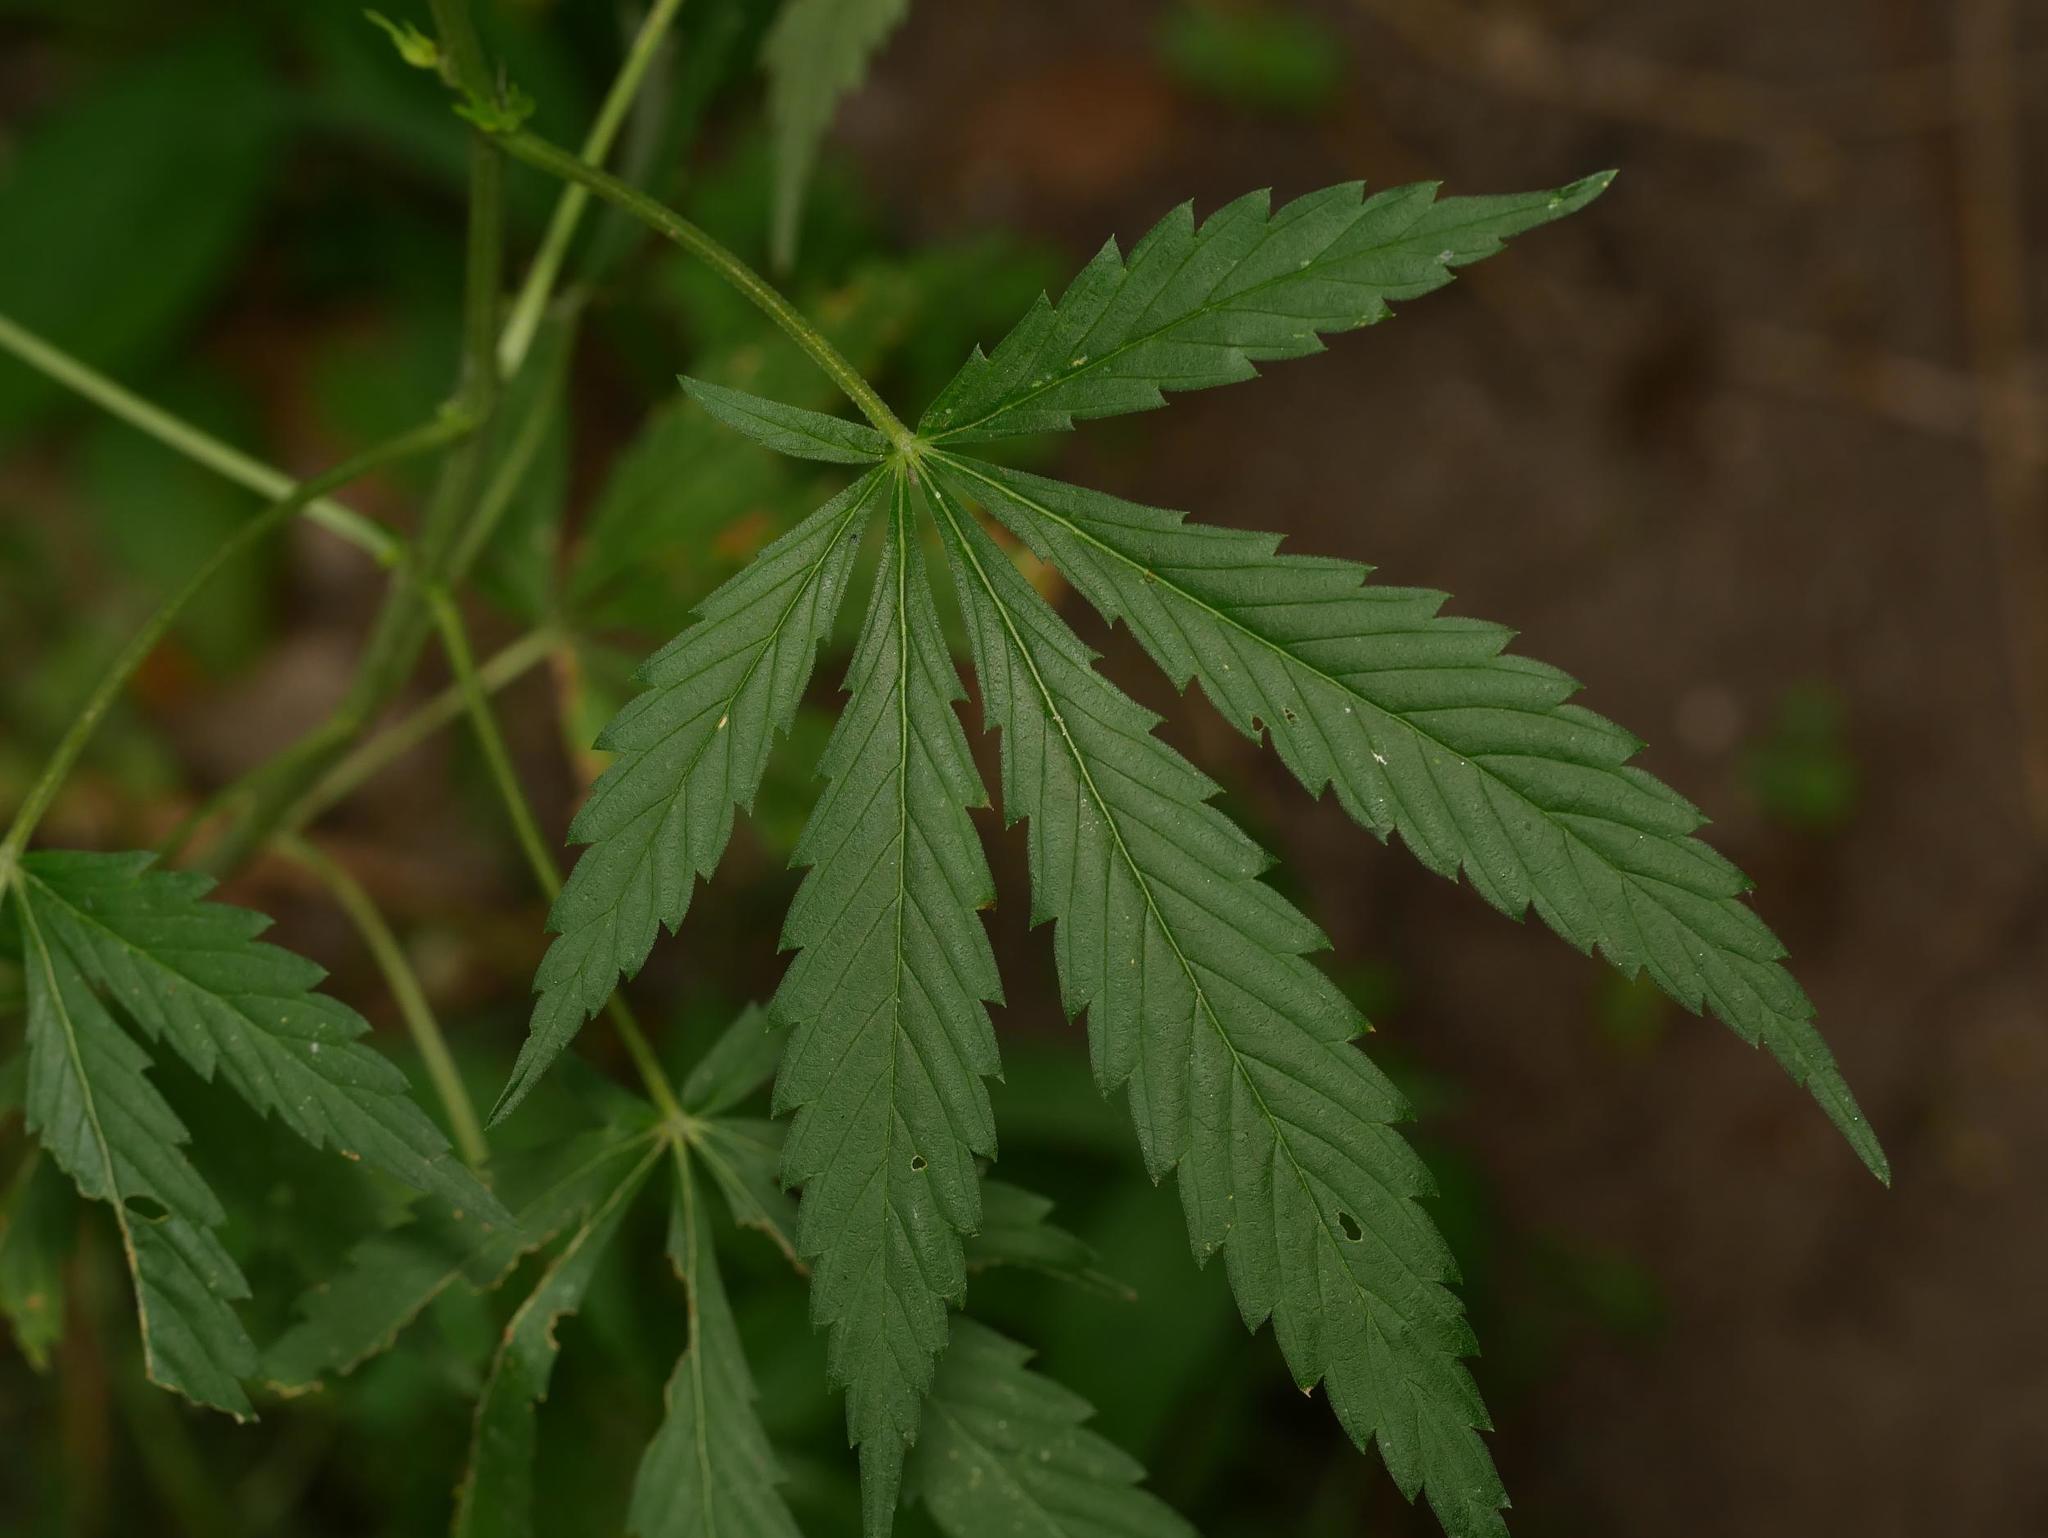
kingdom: Plantae
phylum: Tracheophyta
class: Magnoliopsida
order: Rosales
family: Cannabaceae
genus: Cannabis
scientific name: Cannabis sativa
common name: Hemp
